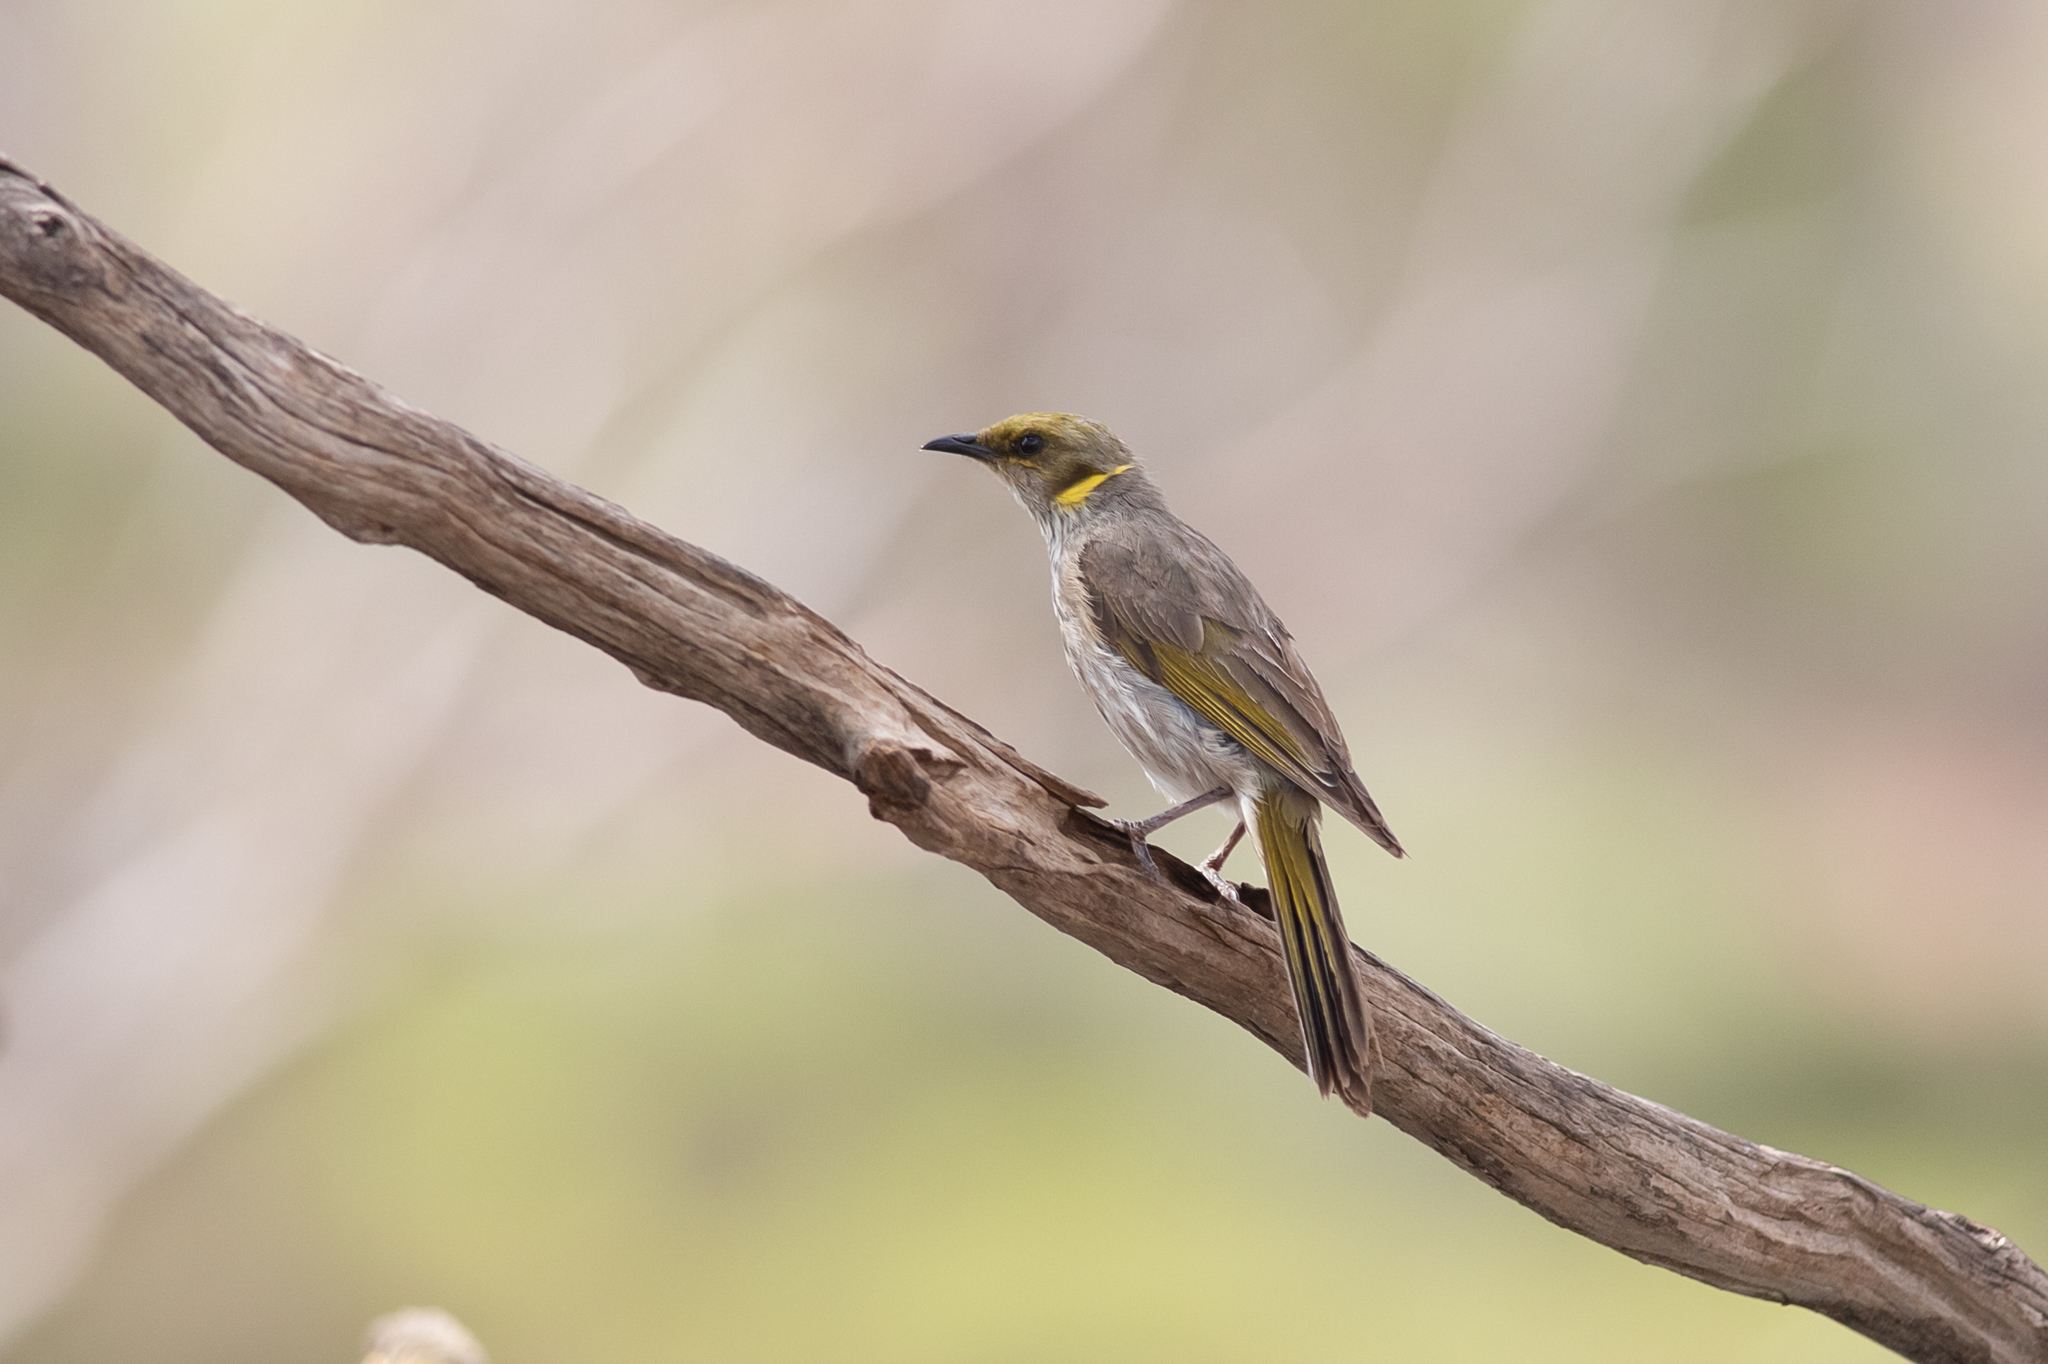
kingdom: Animalia
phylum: Chordata
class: Aves
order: Passeriformes
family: Meliphagidae
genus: Ptilotula
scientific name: Ptilotula ornata
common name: Yellow-plumed honeyeater
